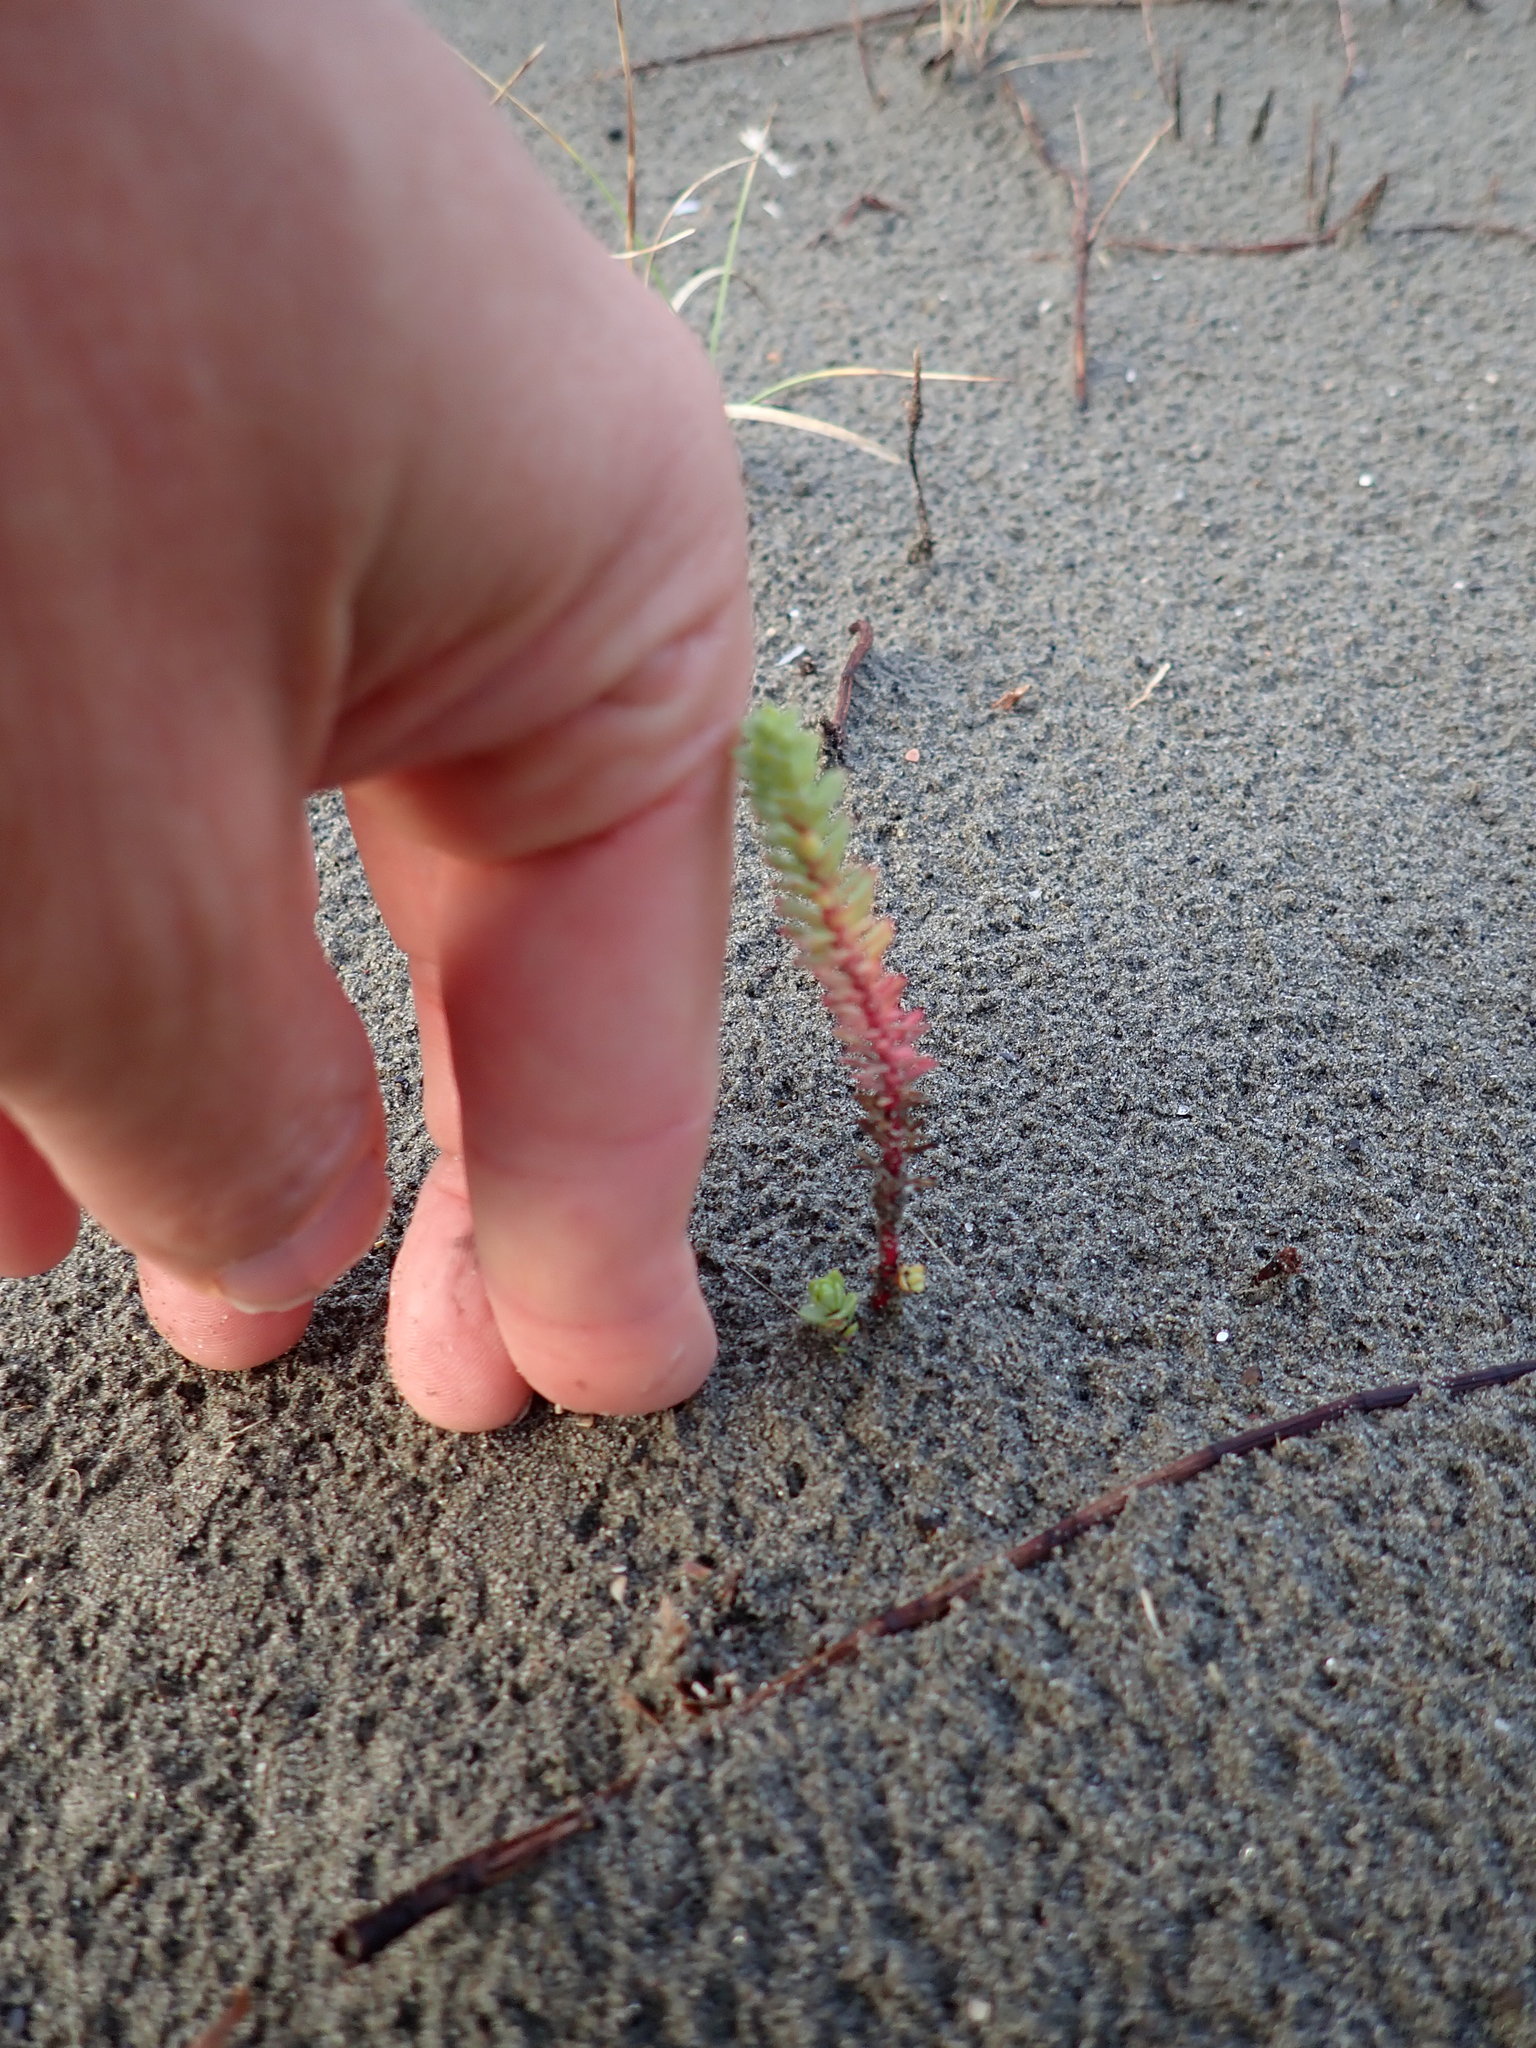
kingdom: Plantae
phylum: Tracheophyta
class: Magnoliopsida
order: Malpighiales
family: Euphorbiaceae
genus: Euphorbia
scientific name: Euphorbia paralias
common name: Sea spurge
